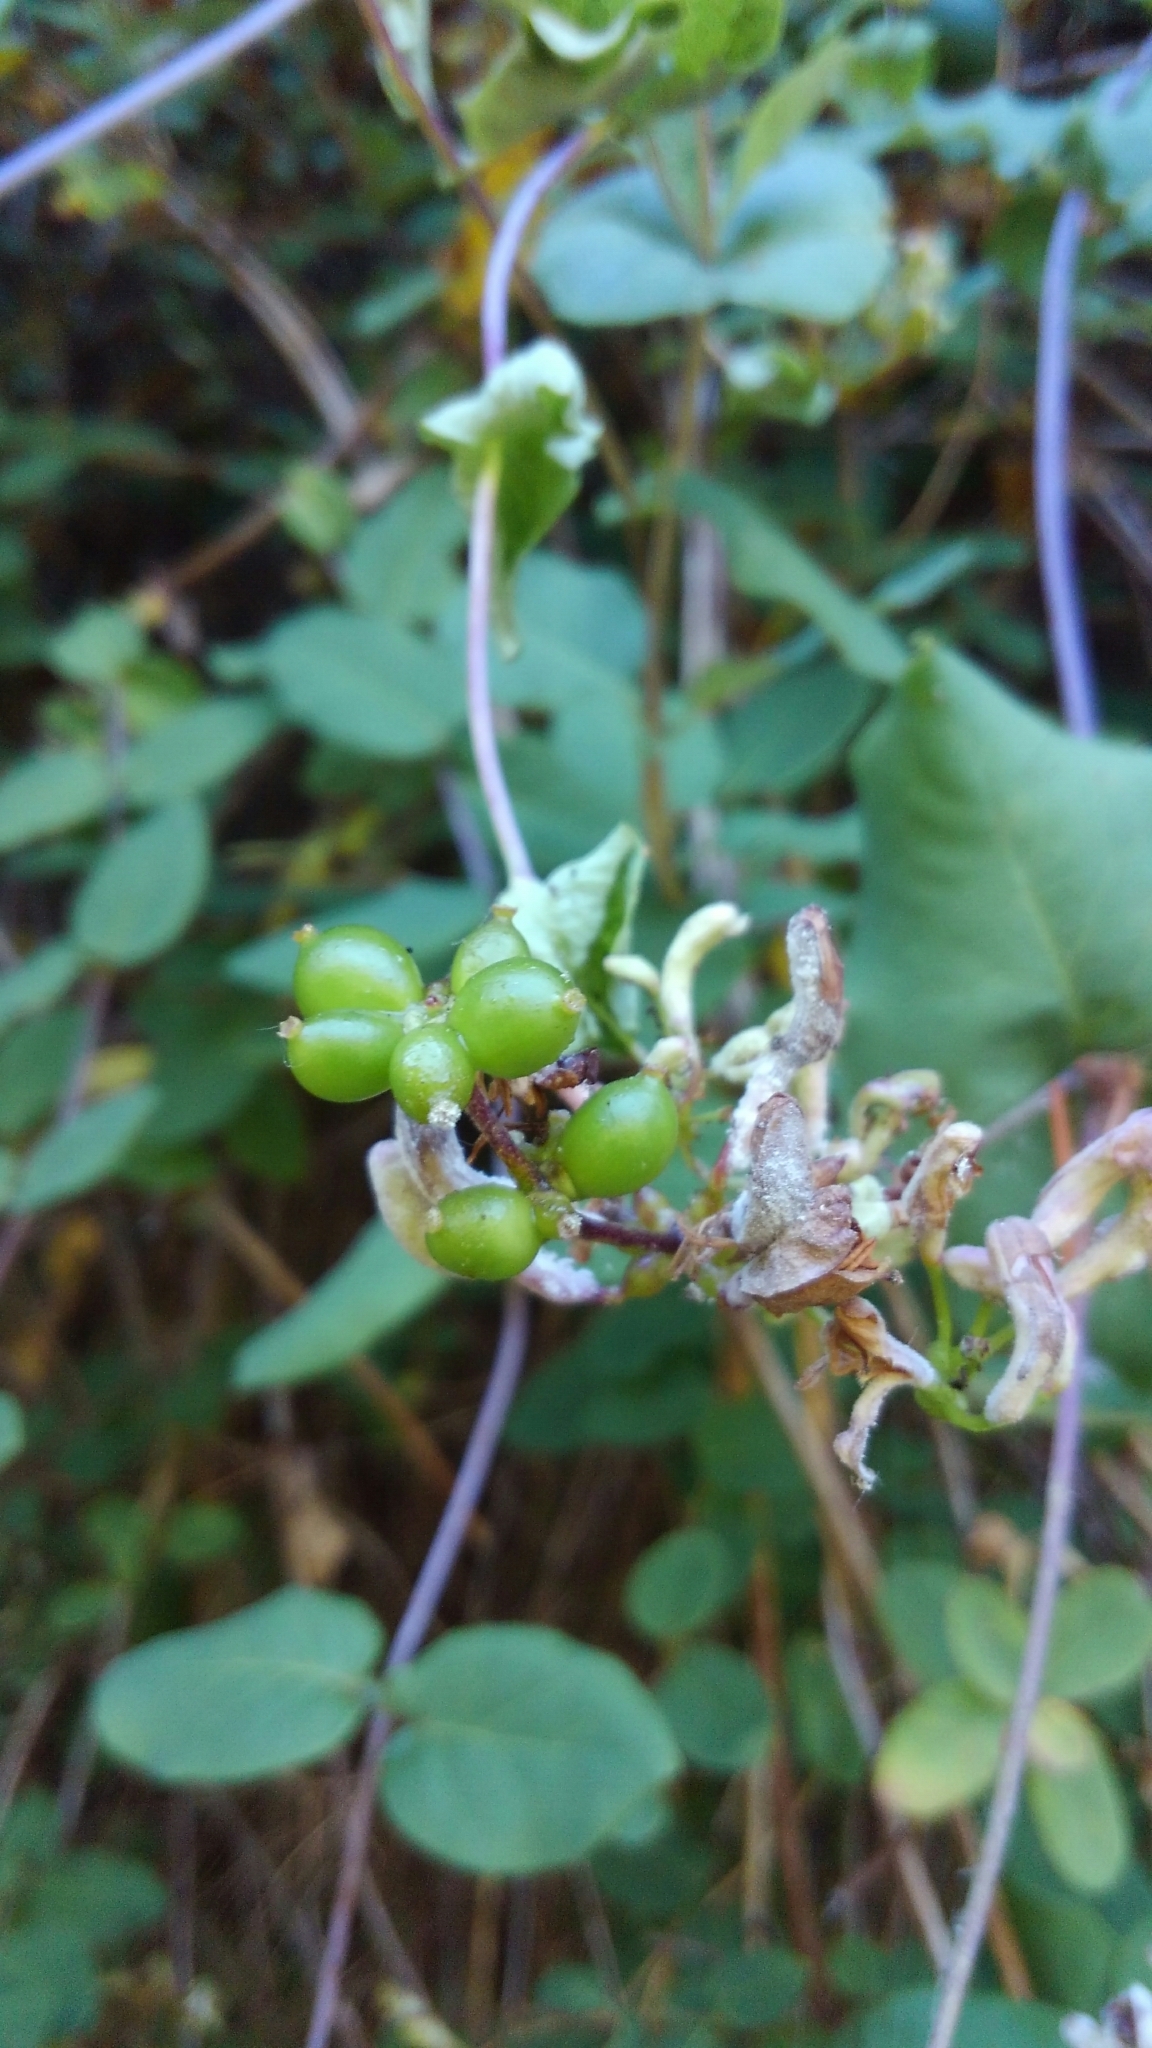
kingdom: Plantae
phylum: Tracheophyta
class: Magnoliopsida
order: Dipsacales
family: Caprifoliaceae
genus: Lonicera
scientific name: Lonicera hispidula
